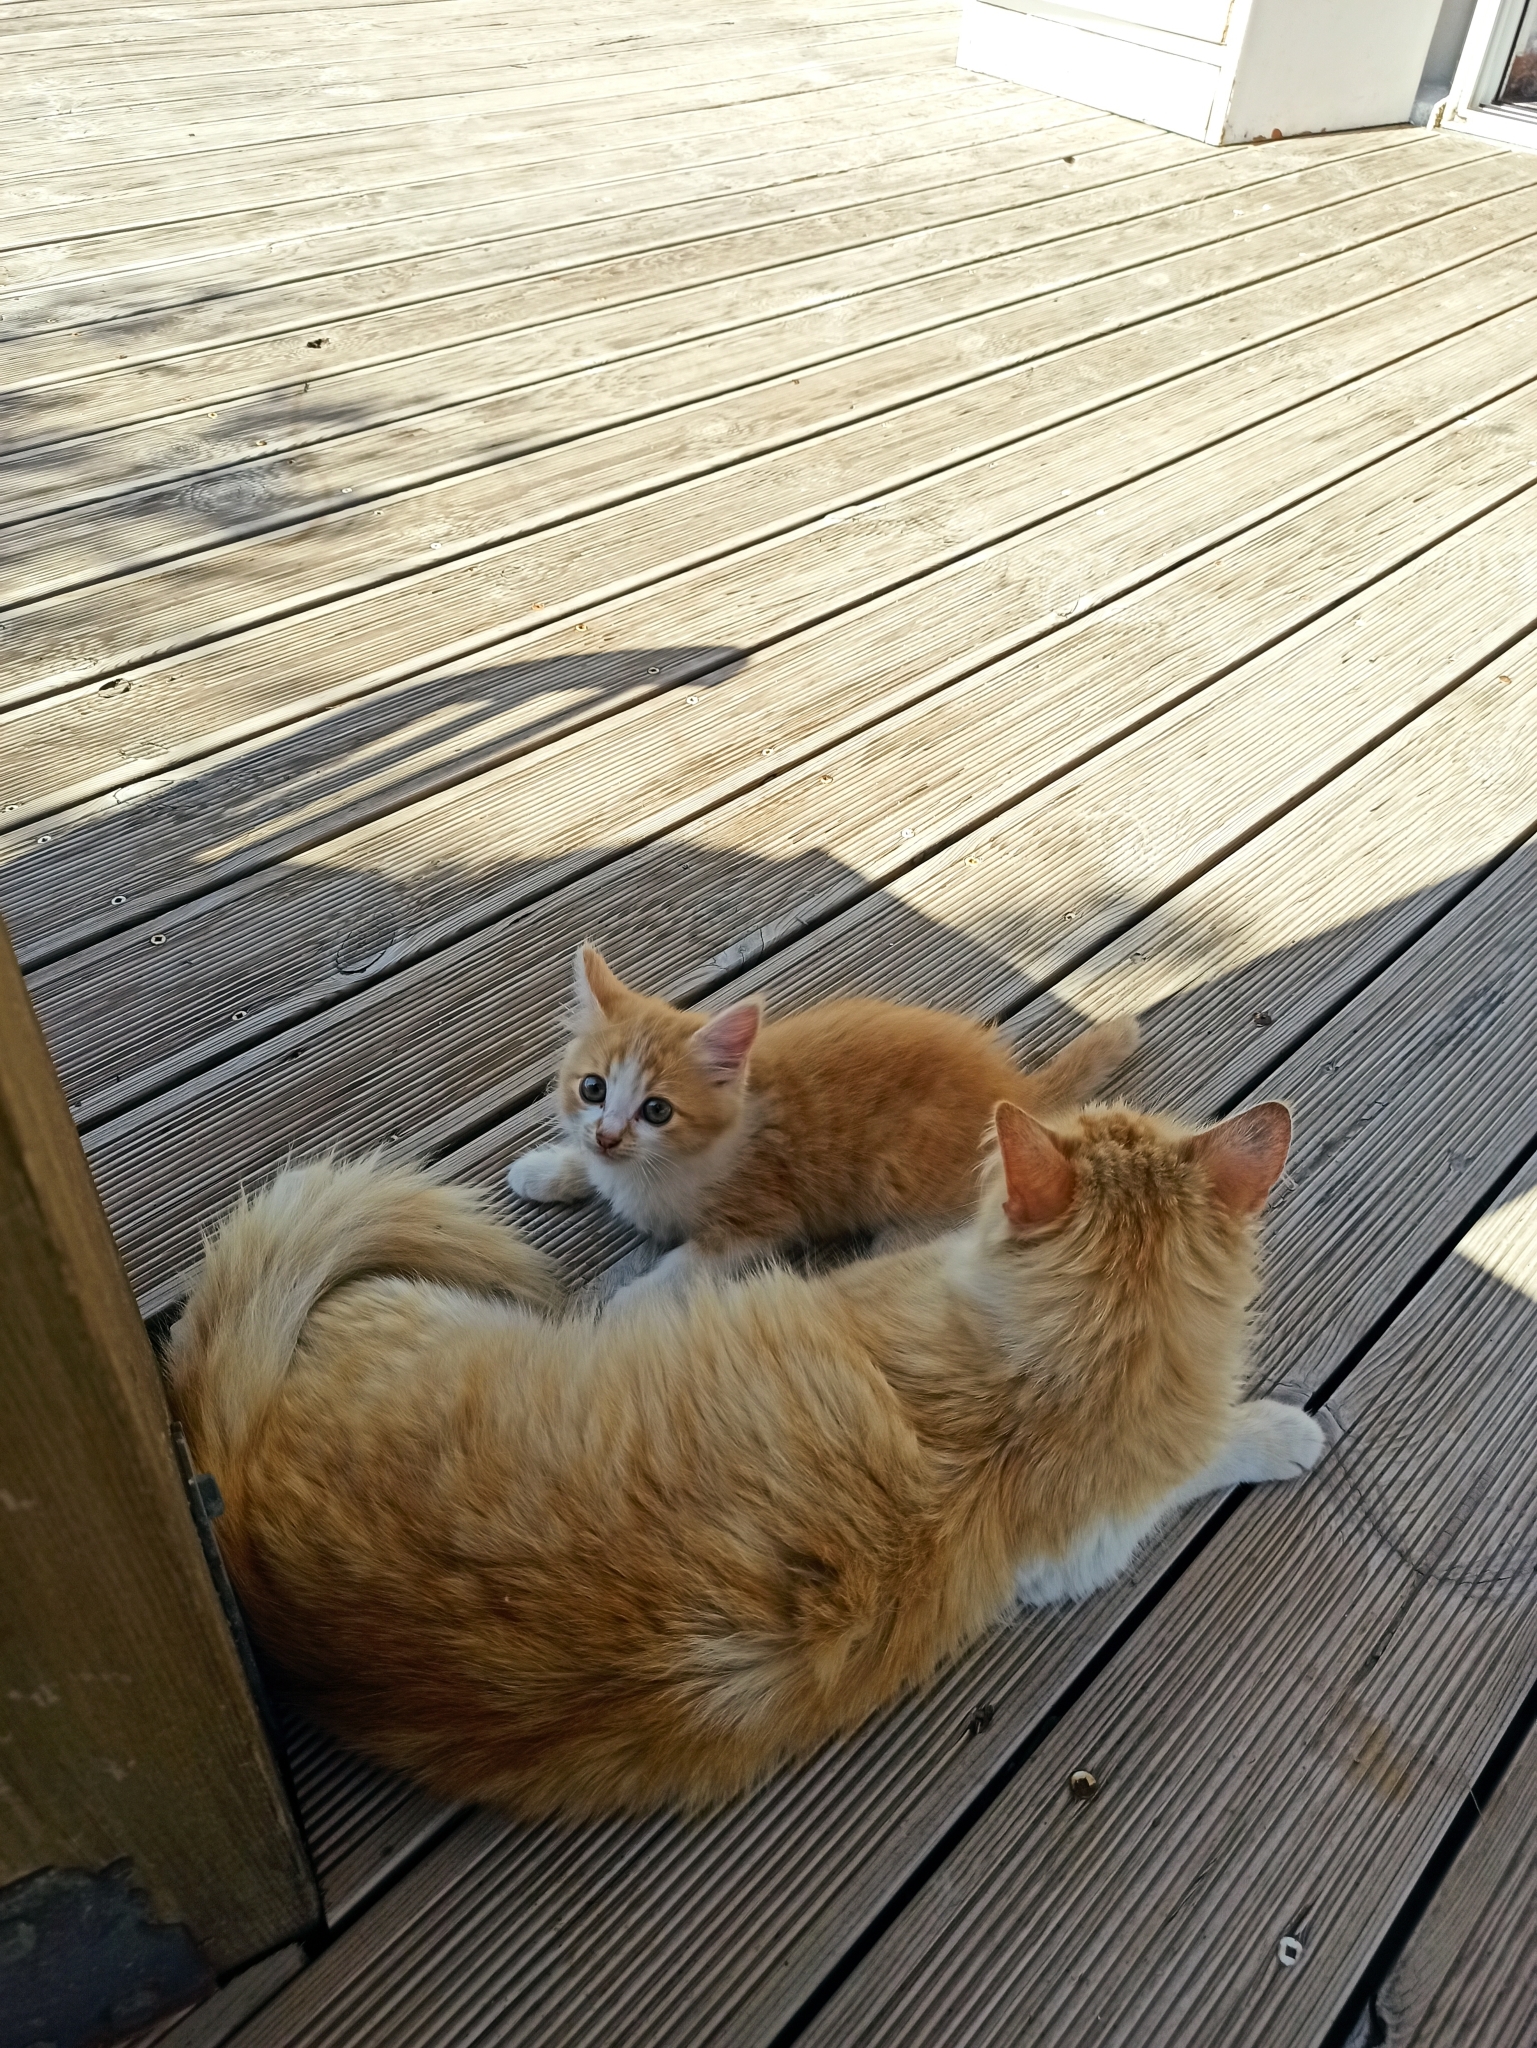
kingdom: Animalia
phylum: Chordata
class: Mammalia
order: Carnivora
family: Felidae
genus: Felis
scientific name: Felis catus
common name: Domestic cat
